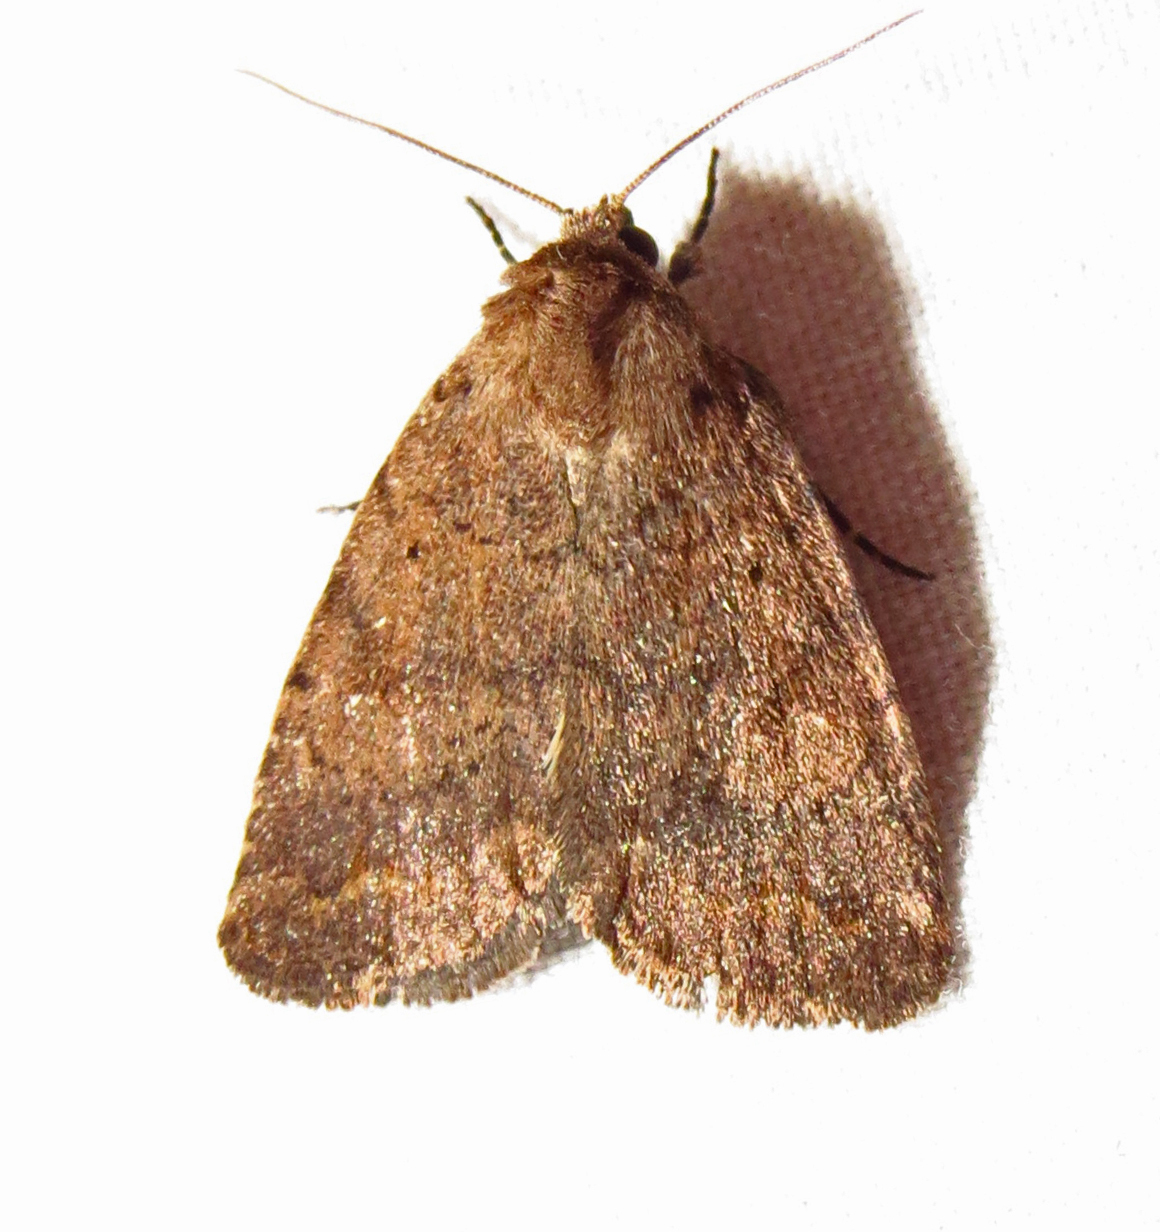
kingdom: Animalia
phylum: Arthropoda
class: Insecta
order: Lepidoptera
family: Noctuidae
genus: Athetis
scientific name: Athetis tarda
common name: Slowpoke moth
